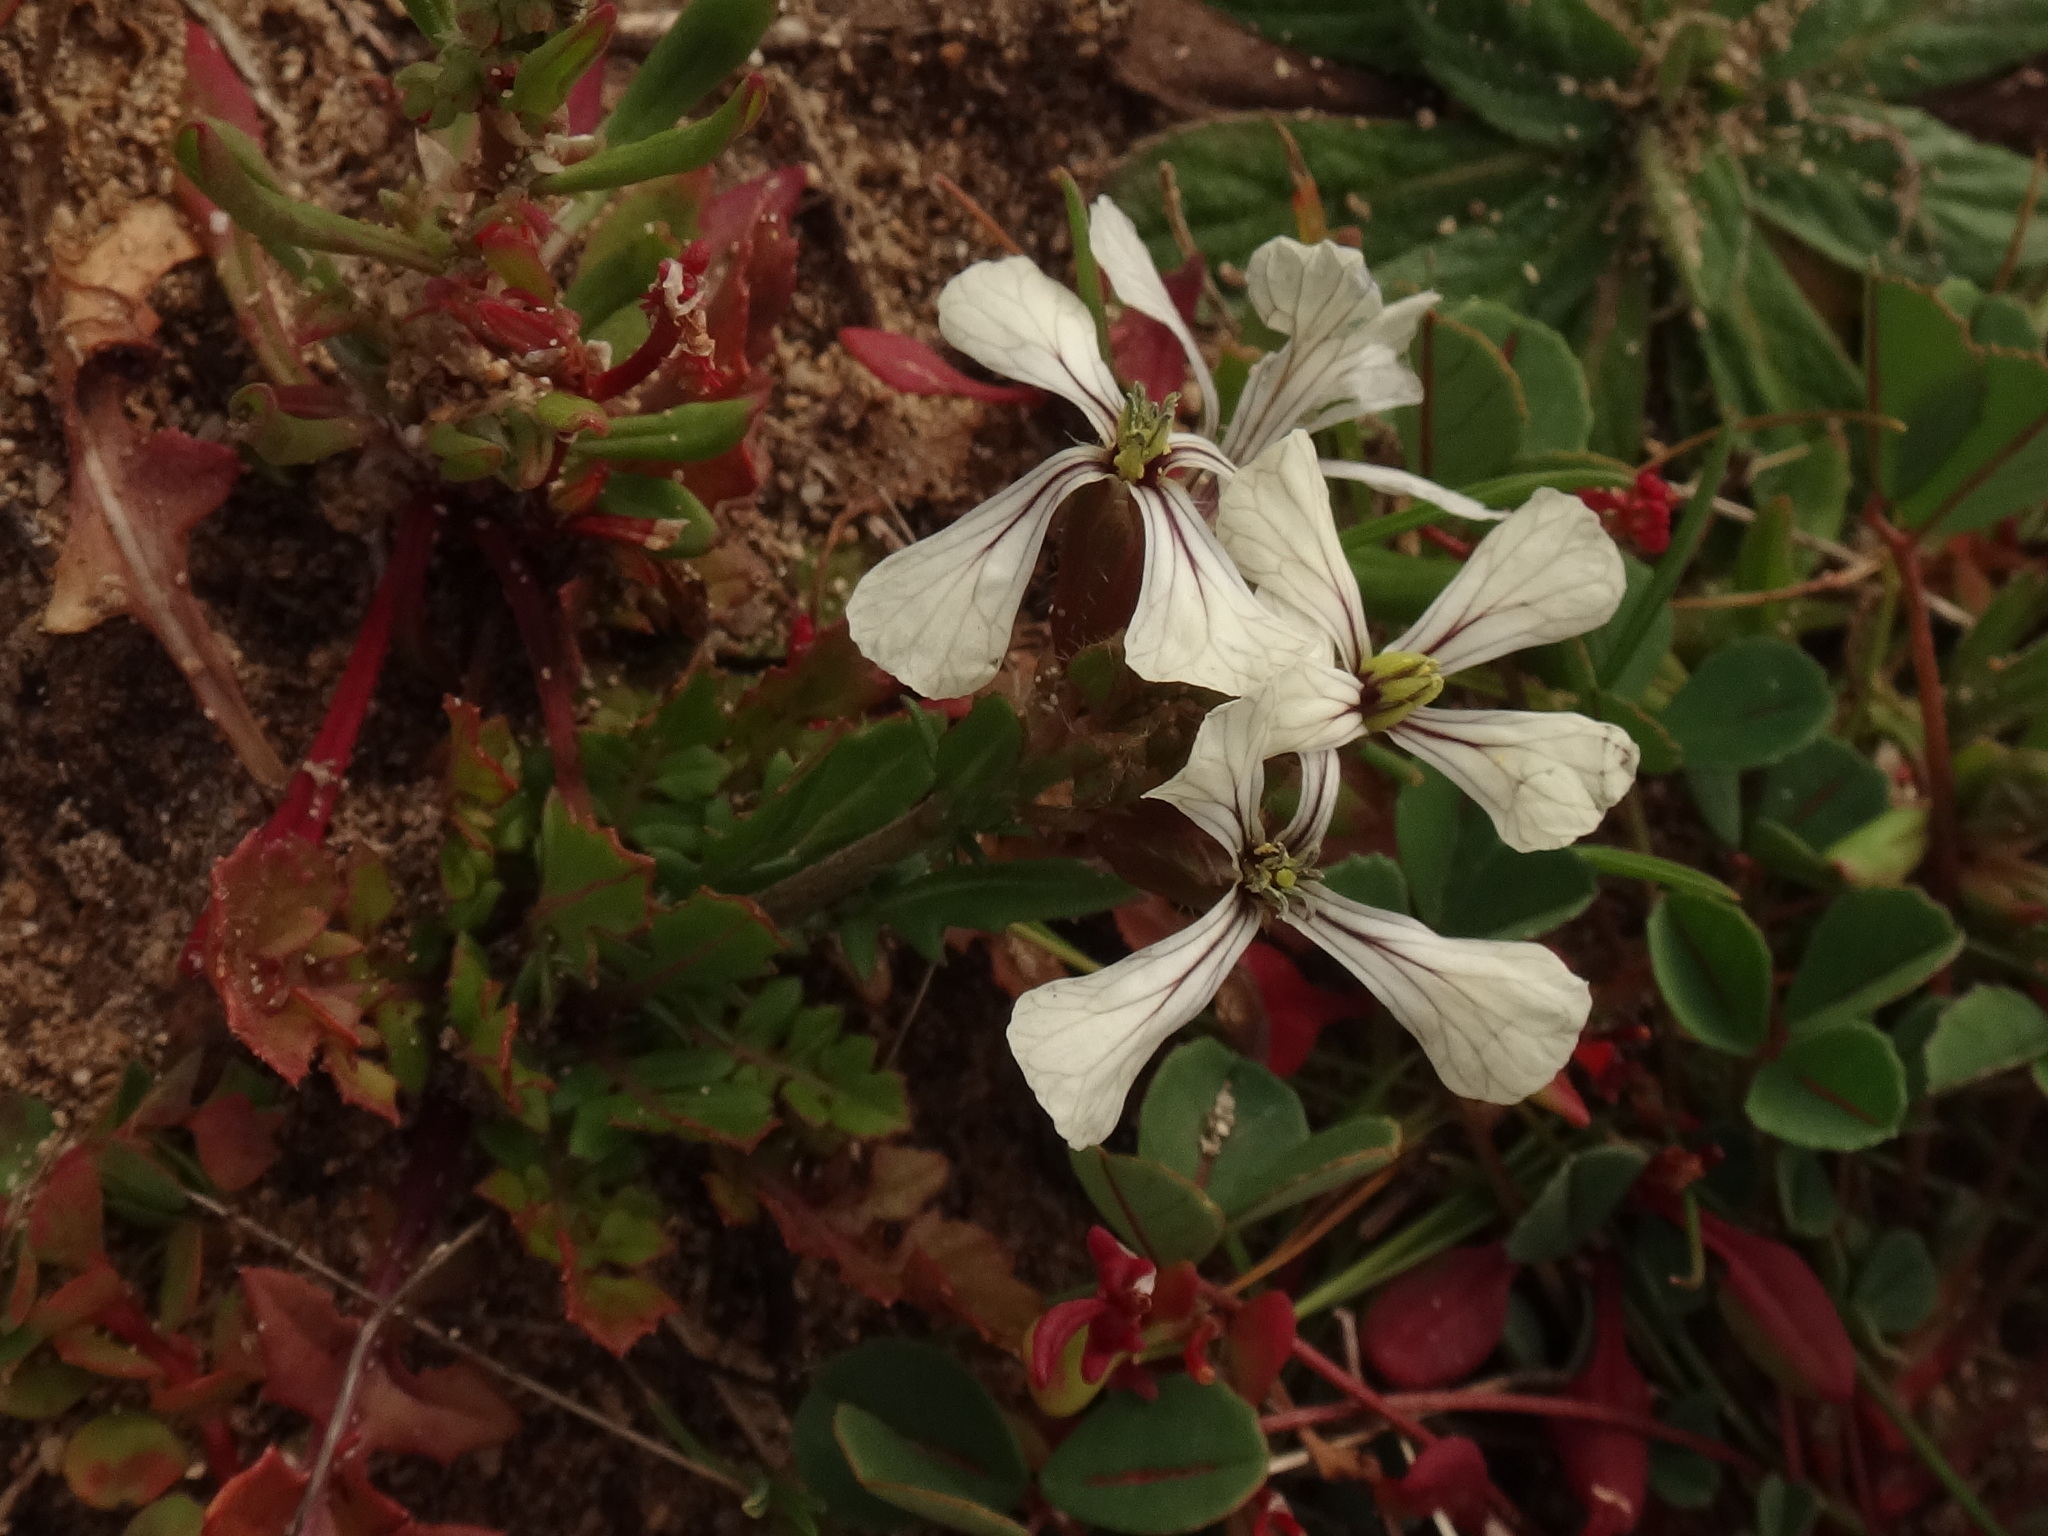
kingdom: Plantae
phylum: Tracheophyta
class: Magnoliopsida
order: Brassicales
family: Brassicaceae
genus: Eruca
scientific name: Eruca vesicaria
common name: Garden rocket
